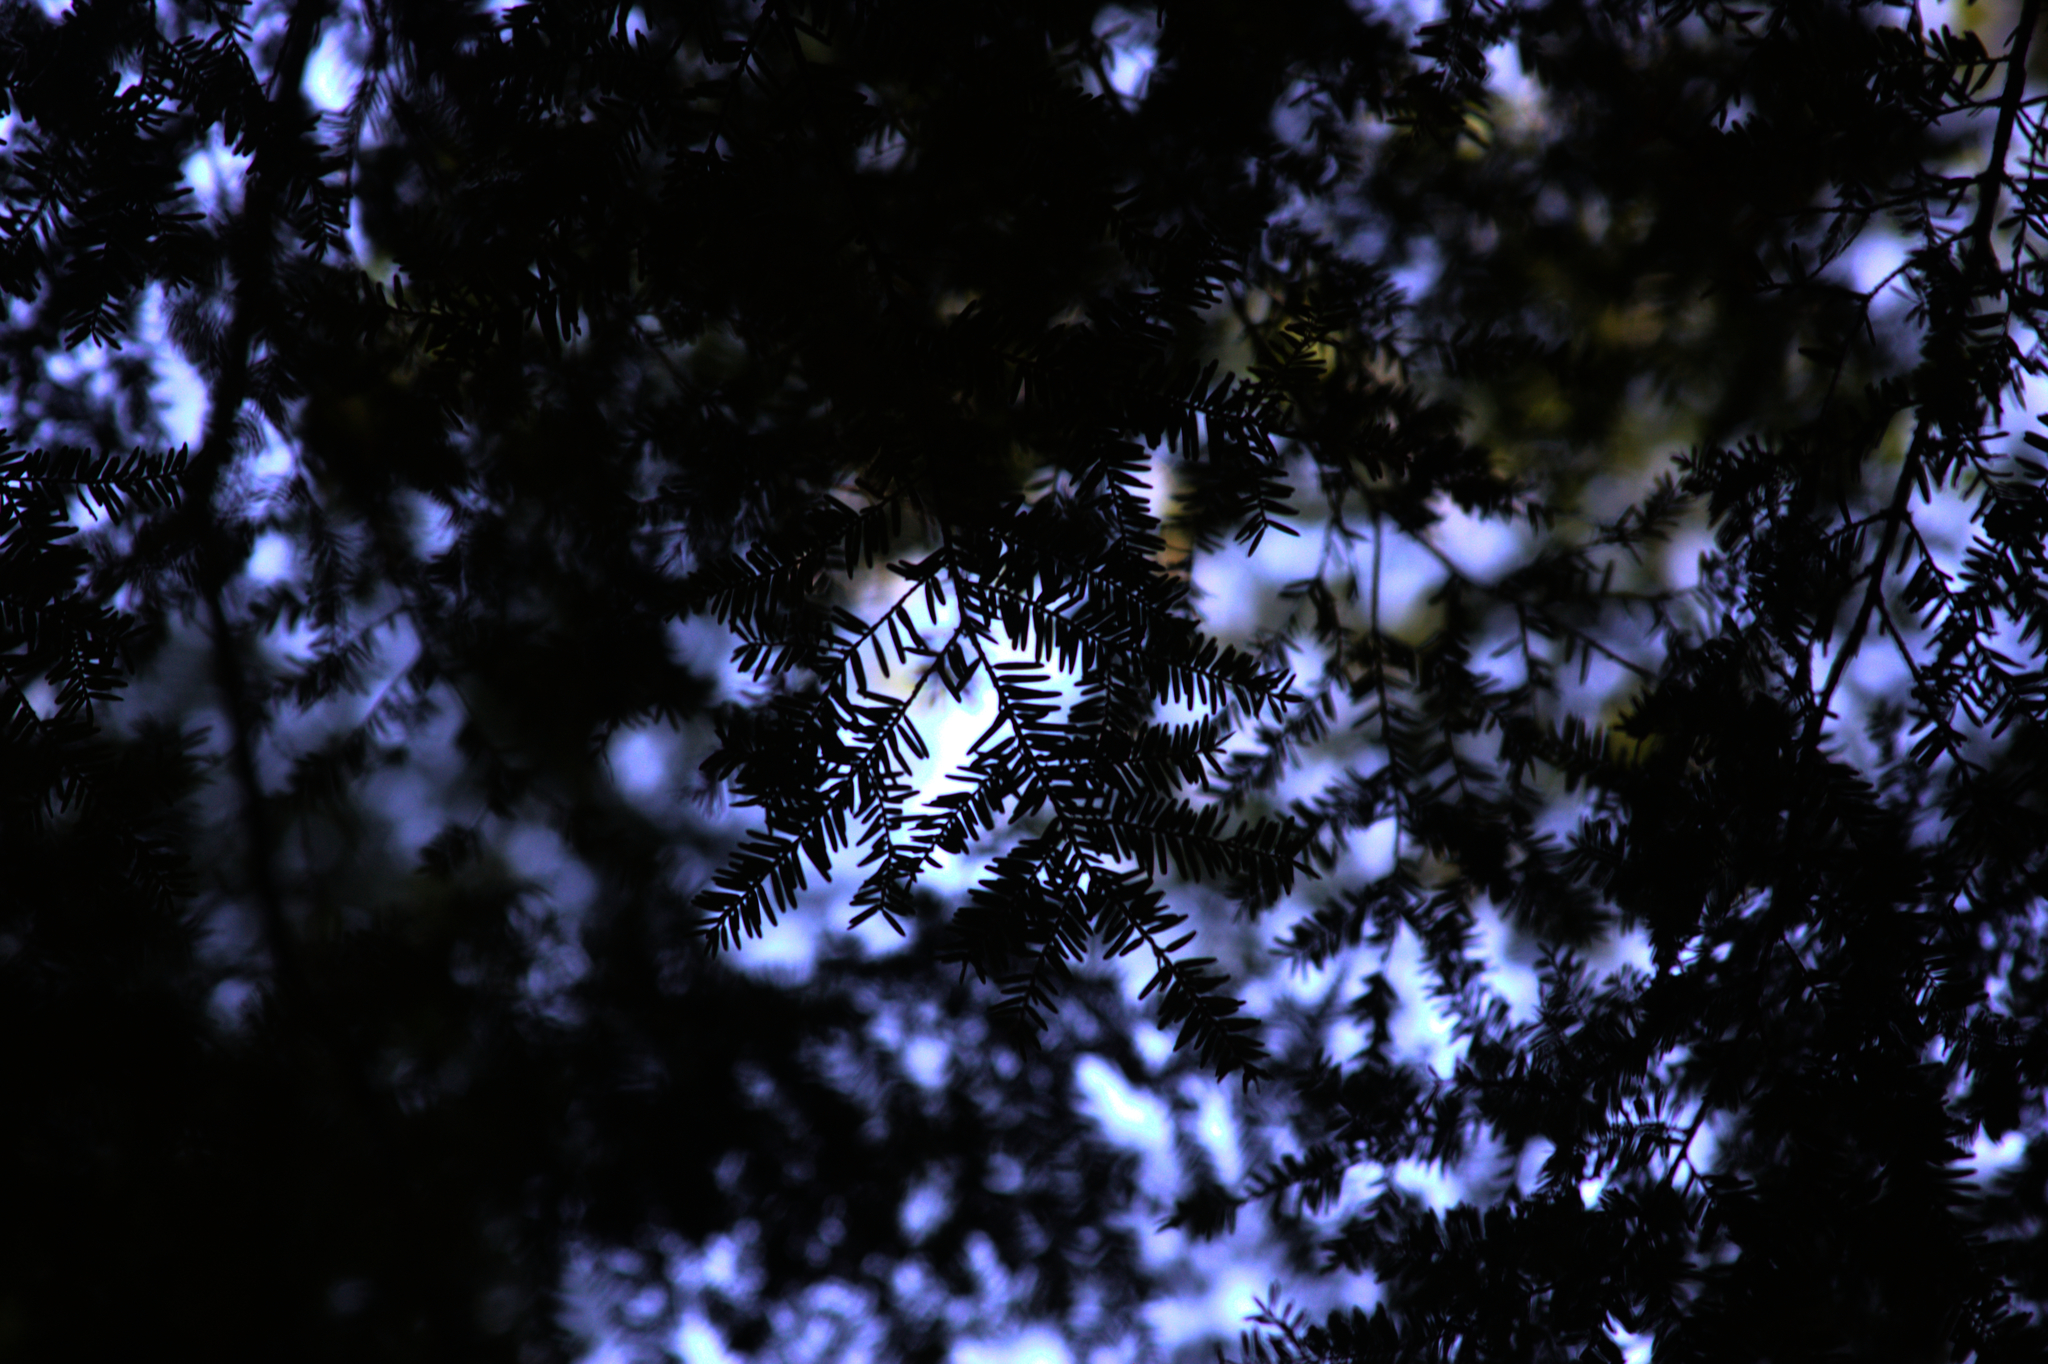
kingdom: Plantae
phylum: Tracheophyta
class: Pinopsida
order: Pinales
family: Pinaceae
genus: Tsuga
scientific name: Tsuga canadensis
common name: Eastern hemlock
